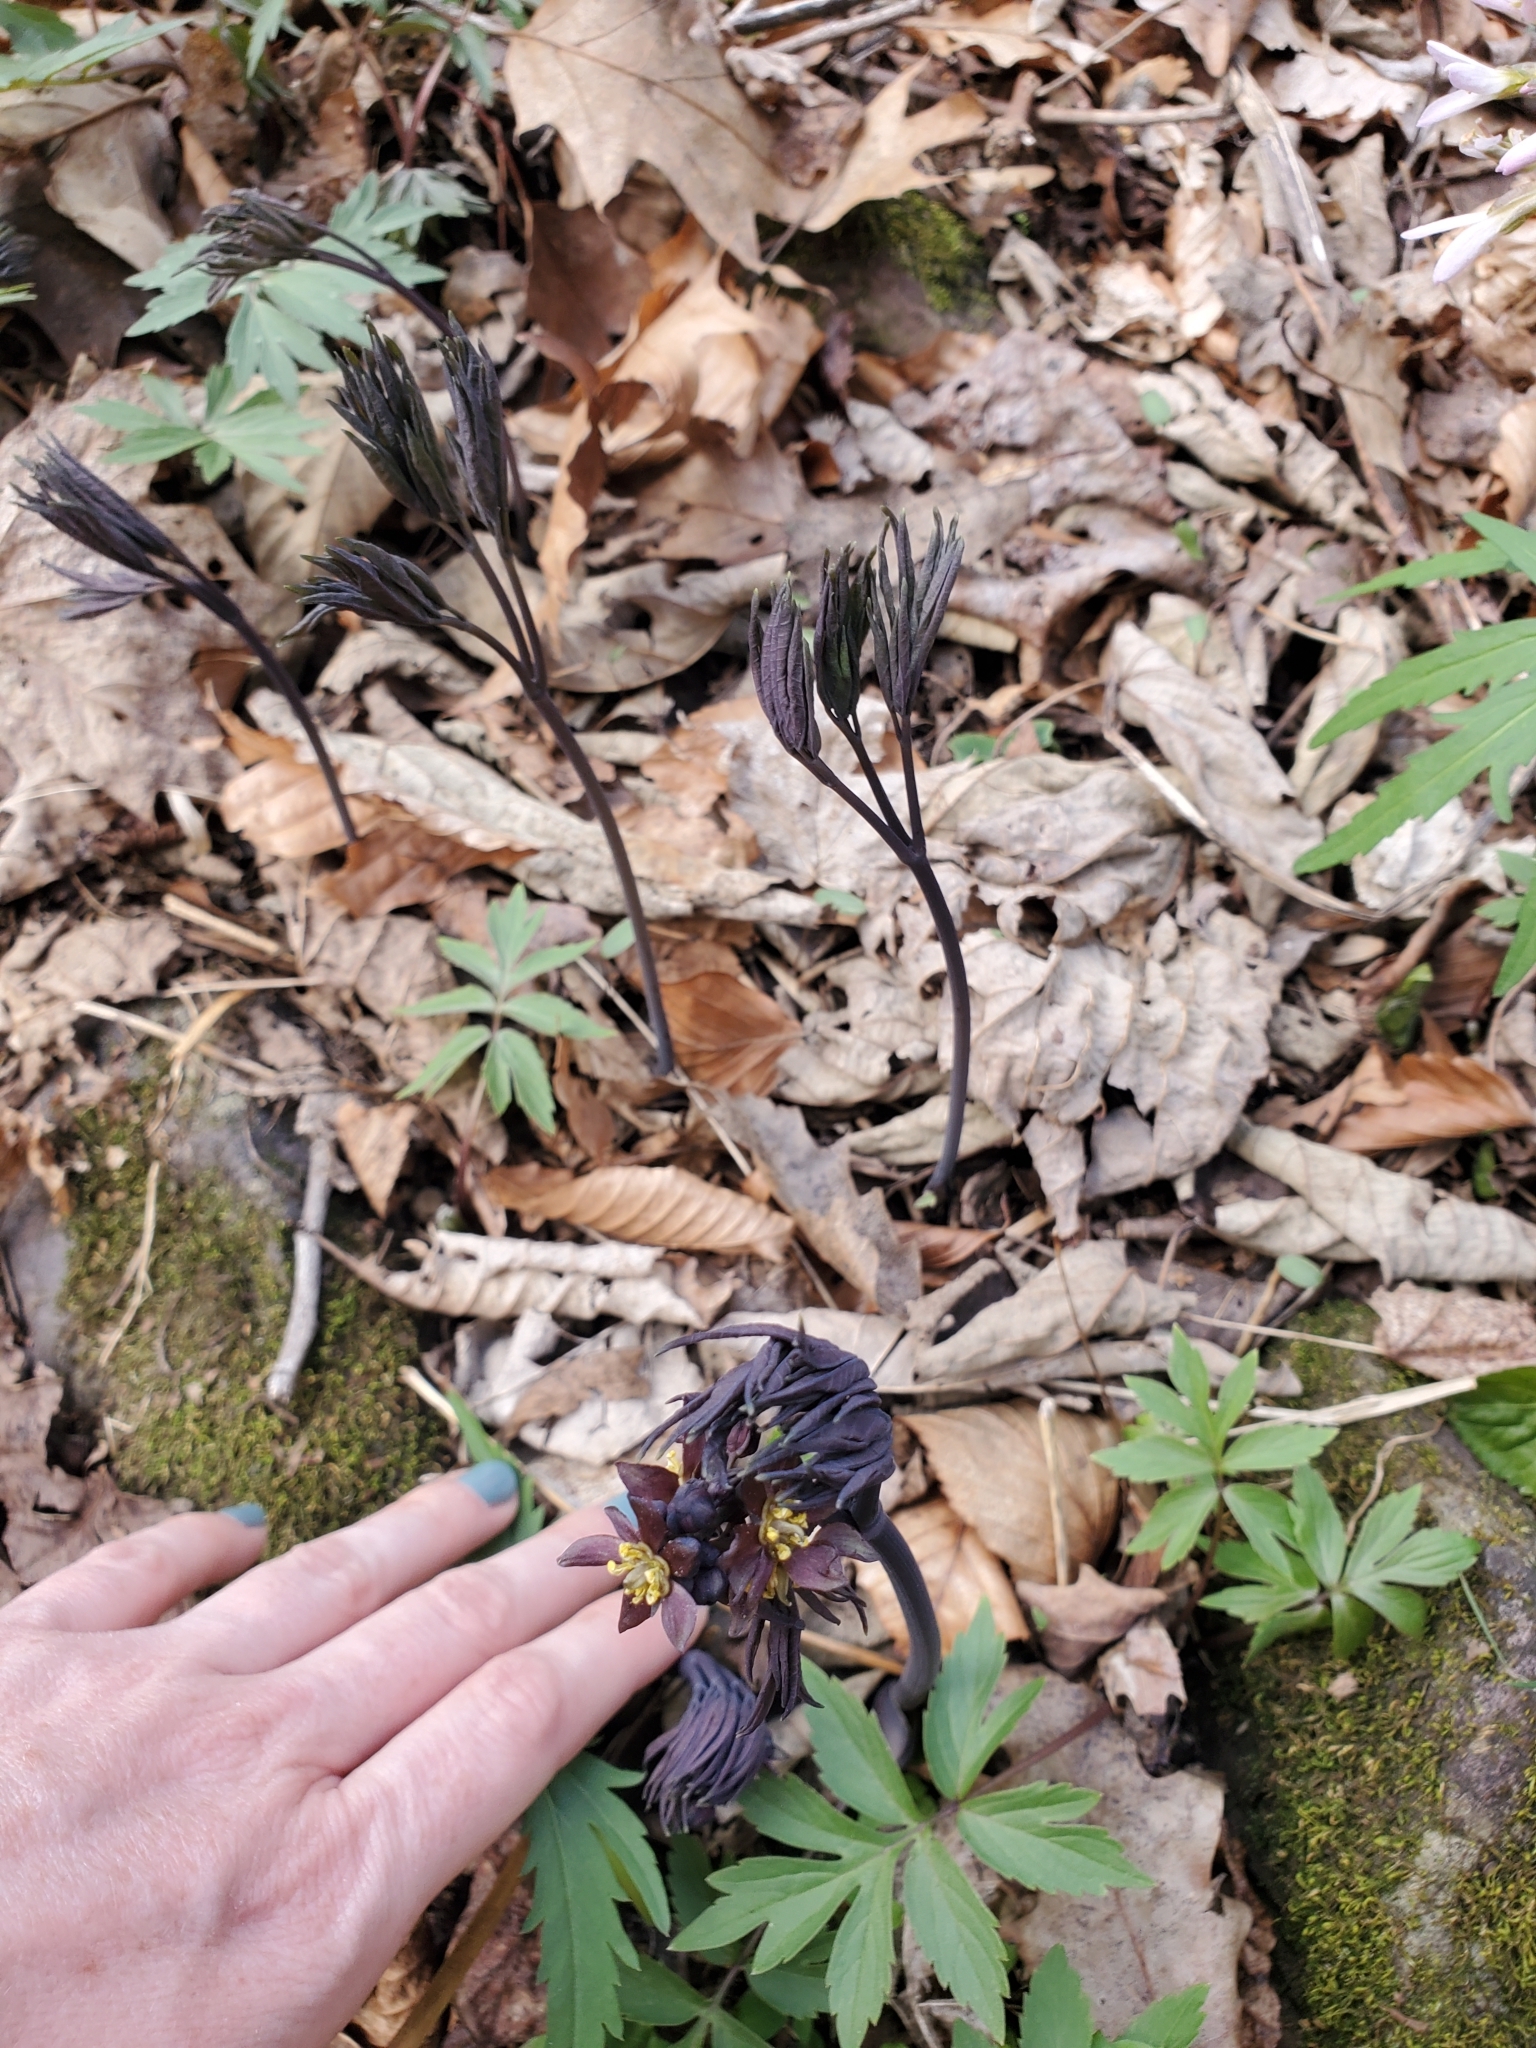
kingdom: Plantae
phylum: Tracheophyta
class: Magnoliopsida
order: Ranunculales
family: Berberidaceae
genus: Caulophyllum
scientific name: Caulophyllum giganteum
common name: Blue cohosh
